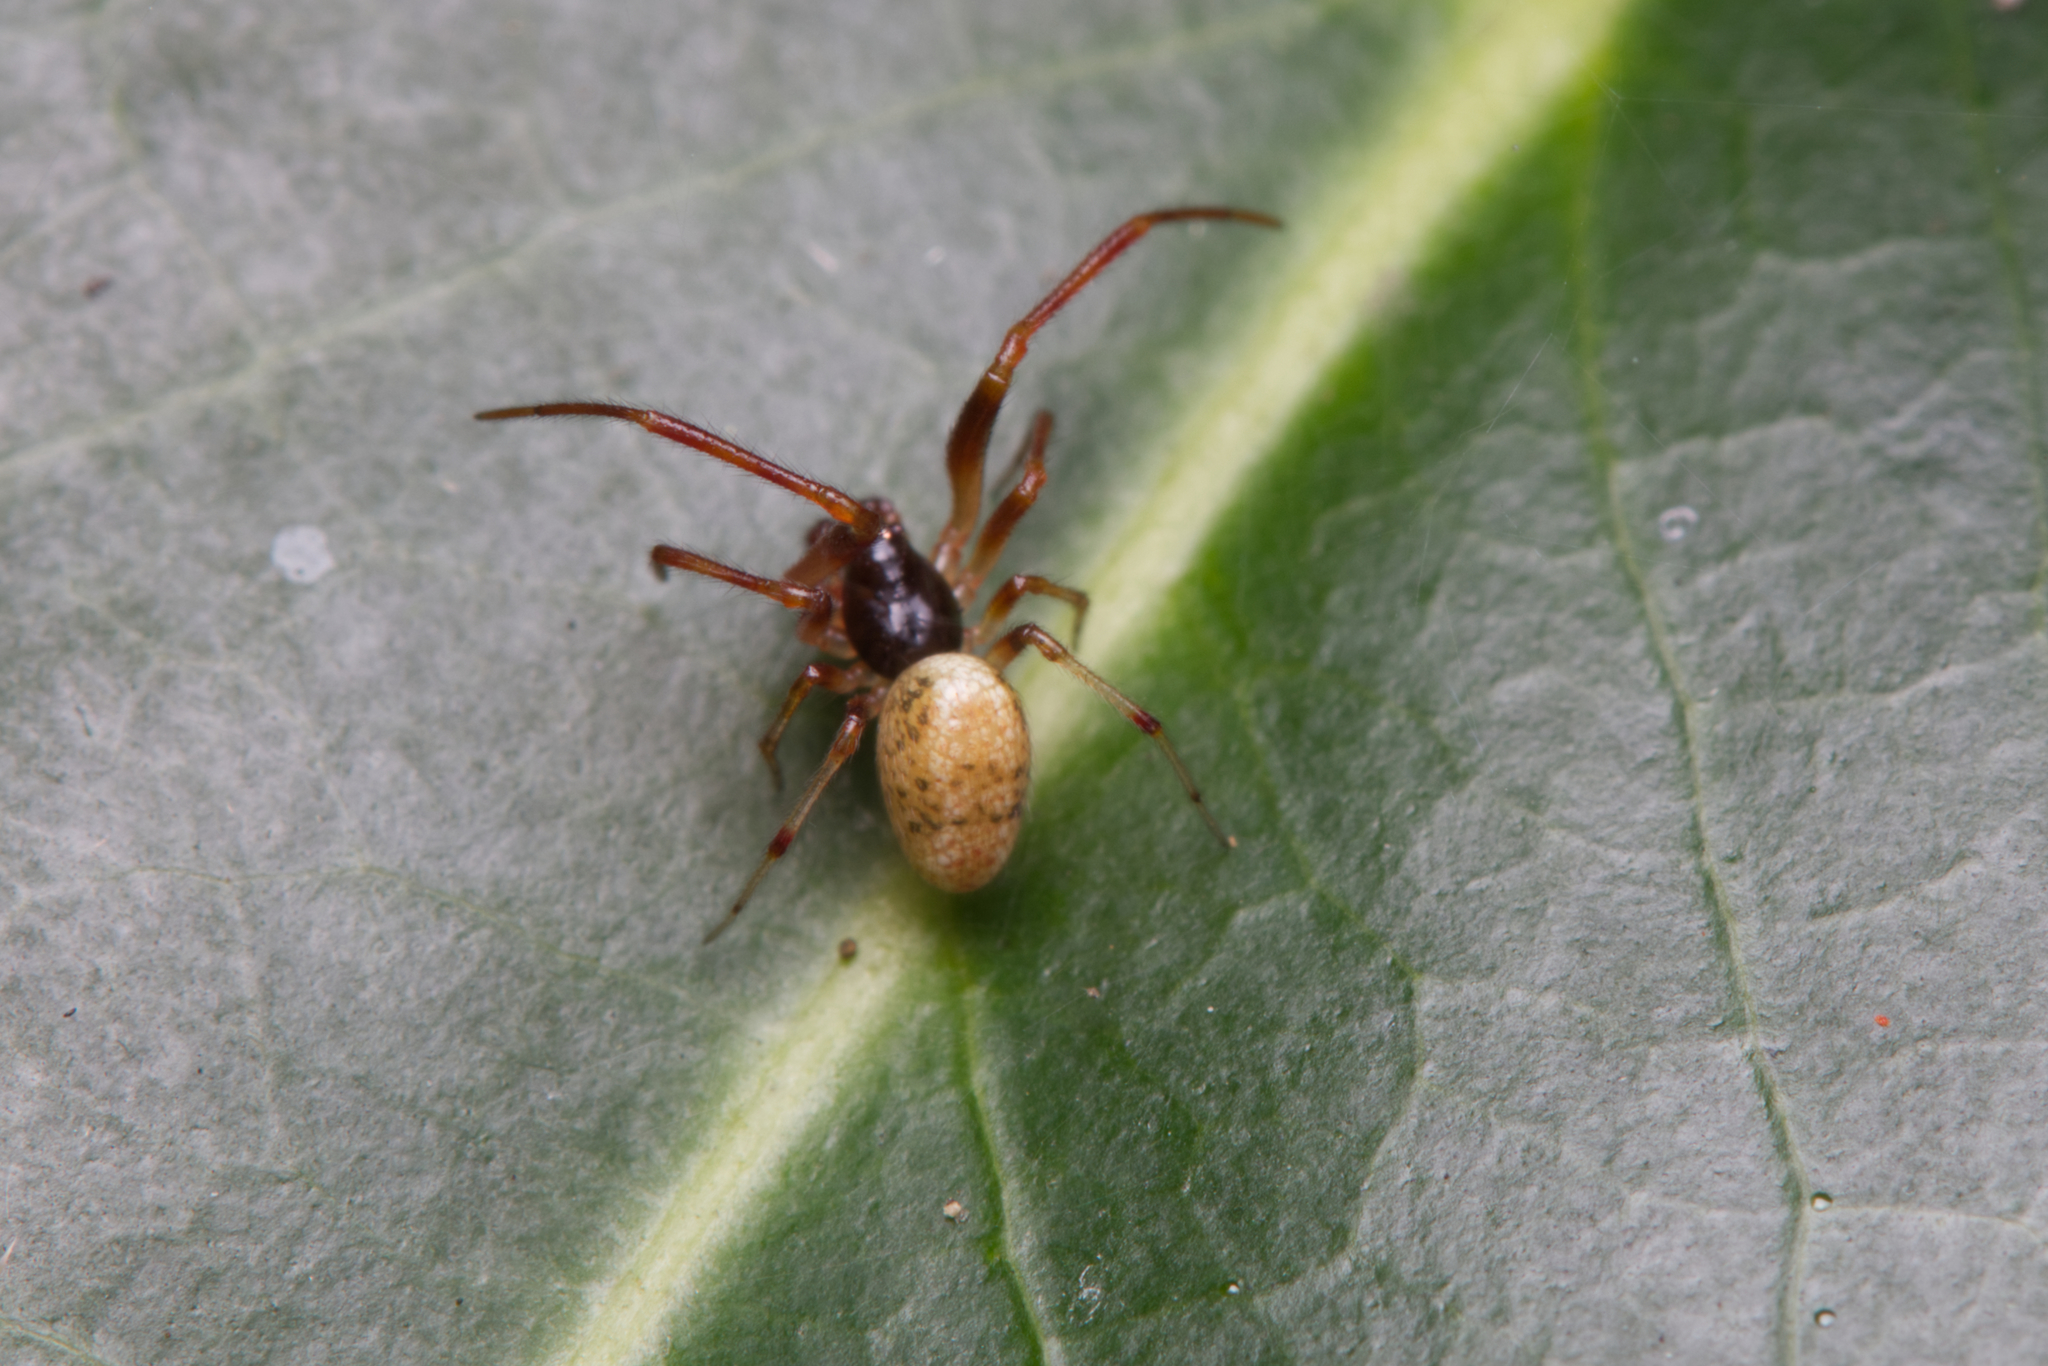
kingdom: Animalia
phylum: Arthropoda
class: Arachnida
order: Araneae
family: Theridiidae
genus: Anelosimus
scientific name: Anelosimus pratchetti
